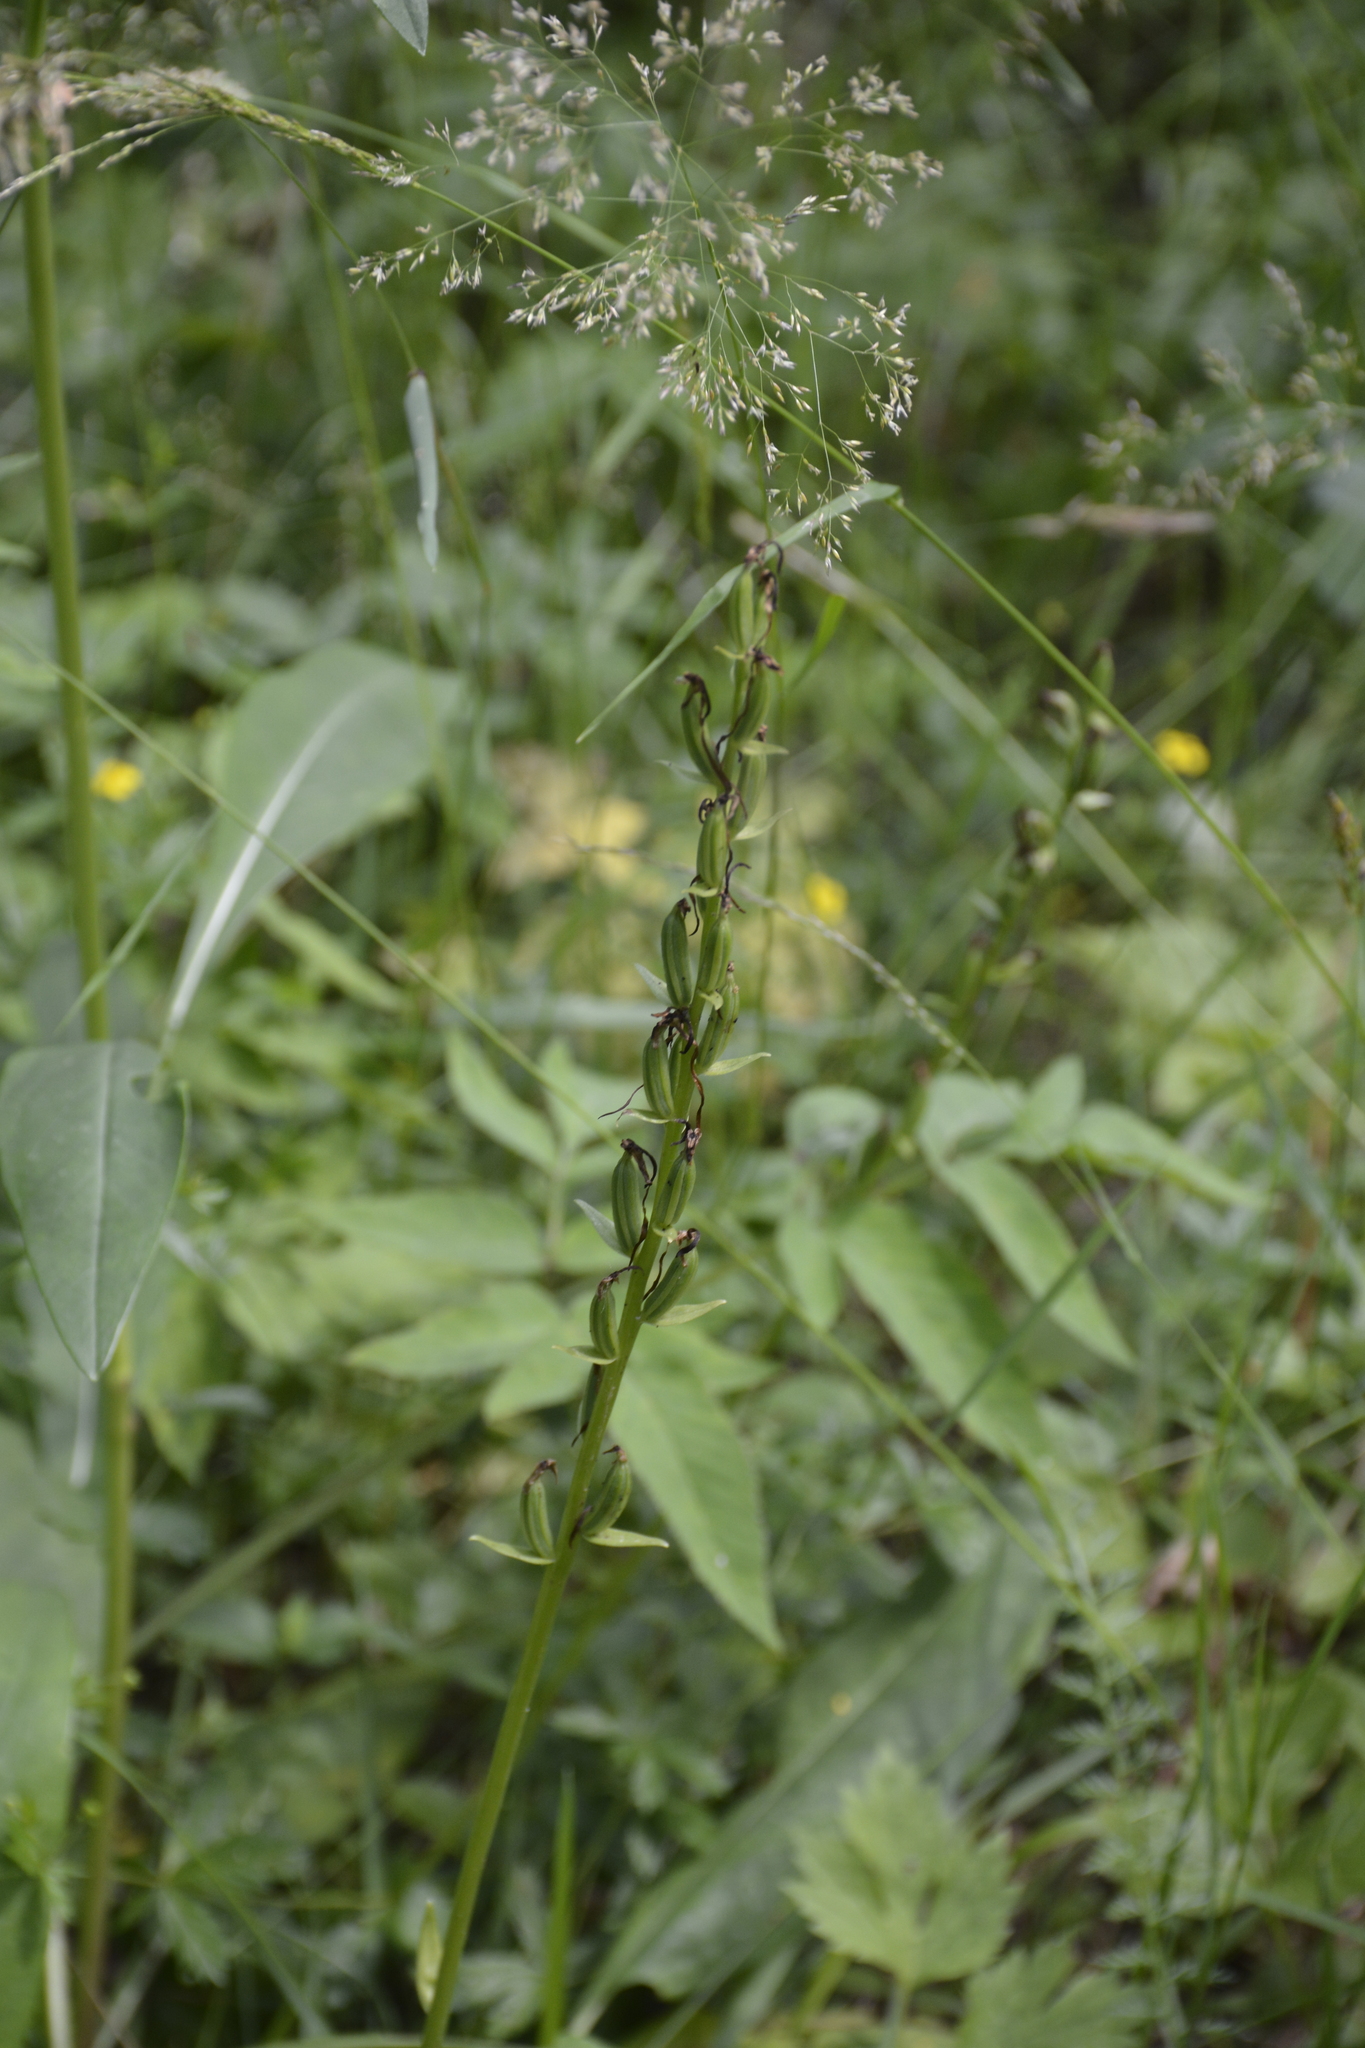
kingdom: Plantae
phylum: Tracheophyta
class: Liliopsida
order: Asparagales
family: Orchidaceae
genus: Platanthera
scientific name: Platanthera bifolia
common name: Lesser butterfly-orchid
